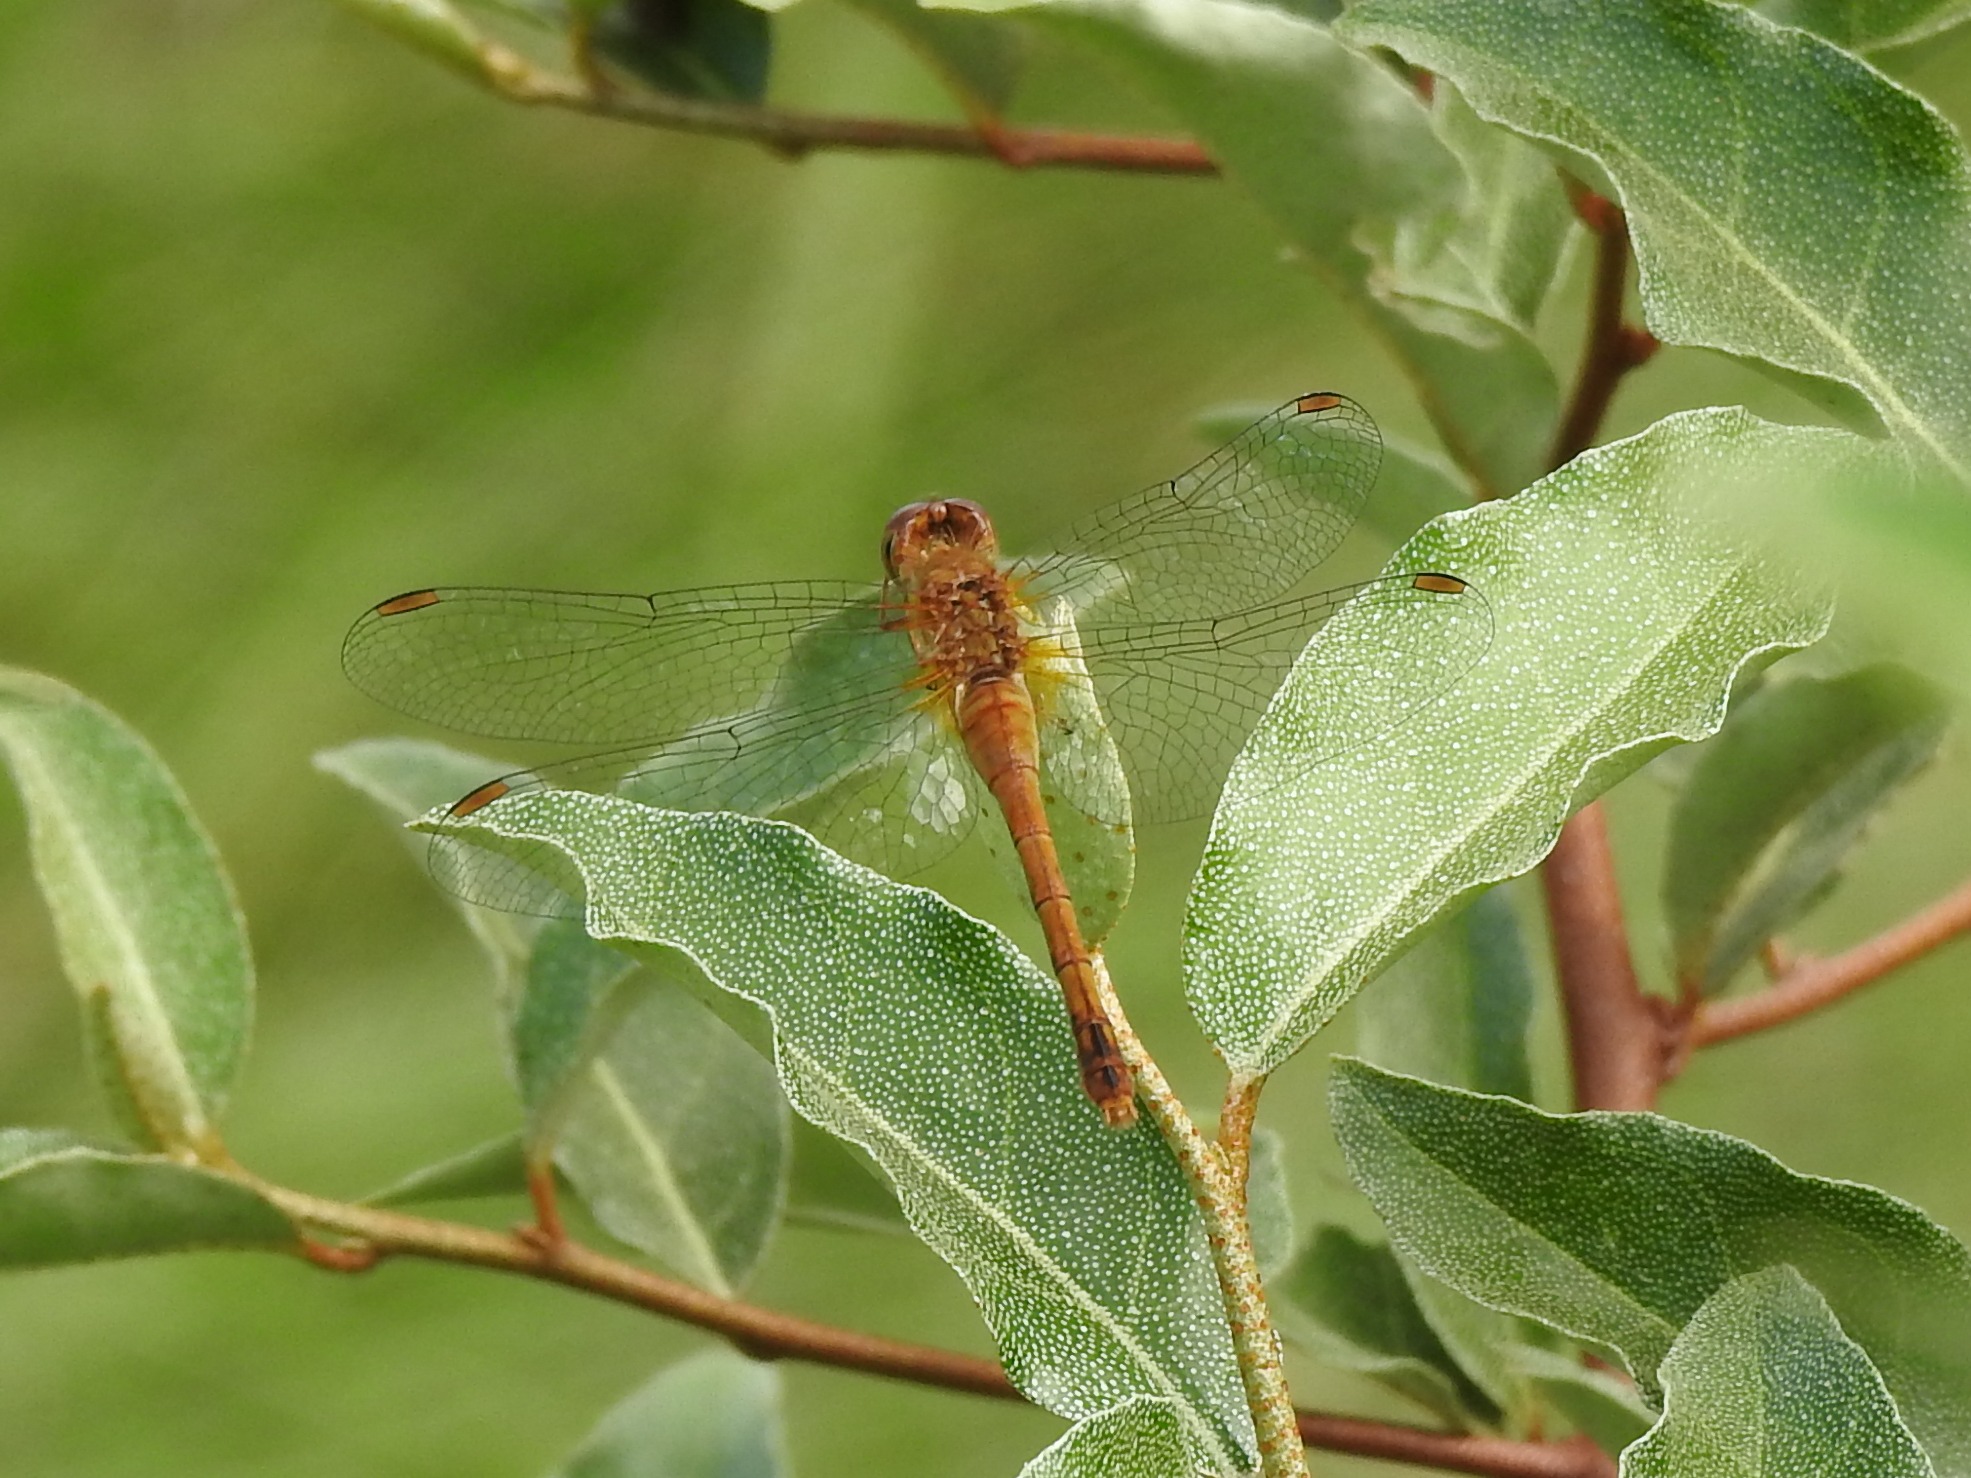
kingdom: Animalia
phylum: Arthropoda
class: Insecta
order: Odonata
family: Libellulidae
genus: Sympetrum
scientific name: Sympetrum vicinum
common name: Autumn meadowhawk
